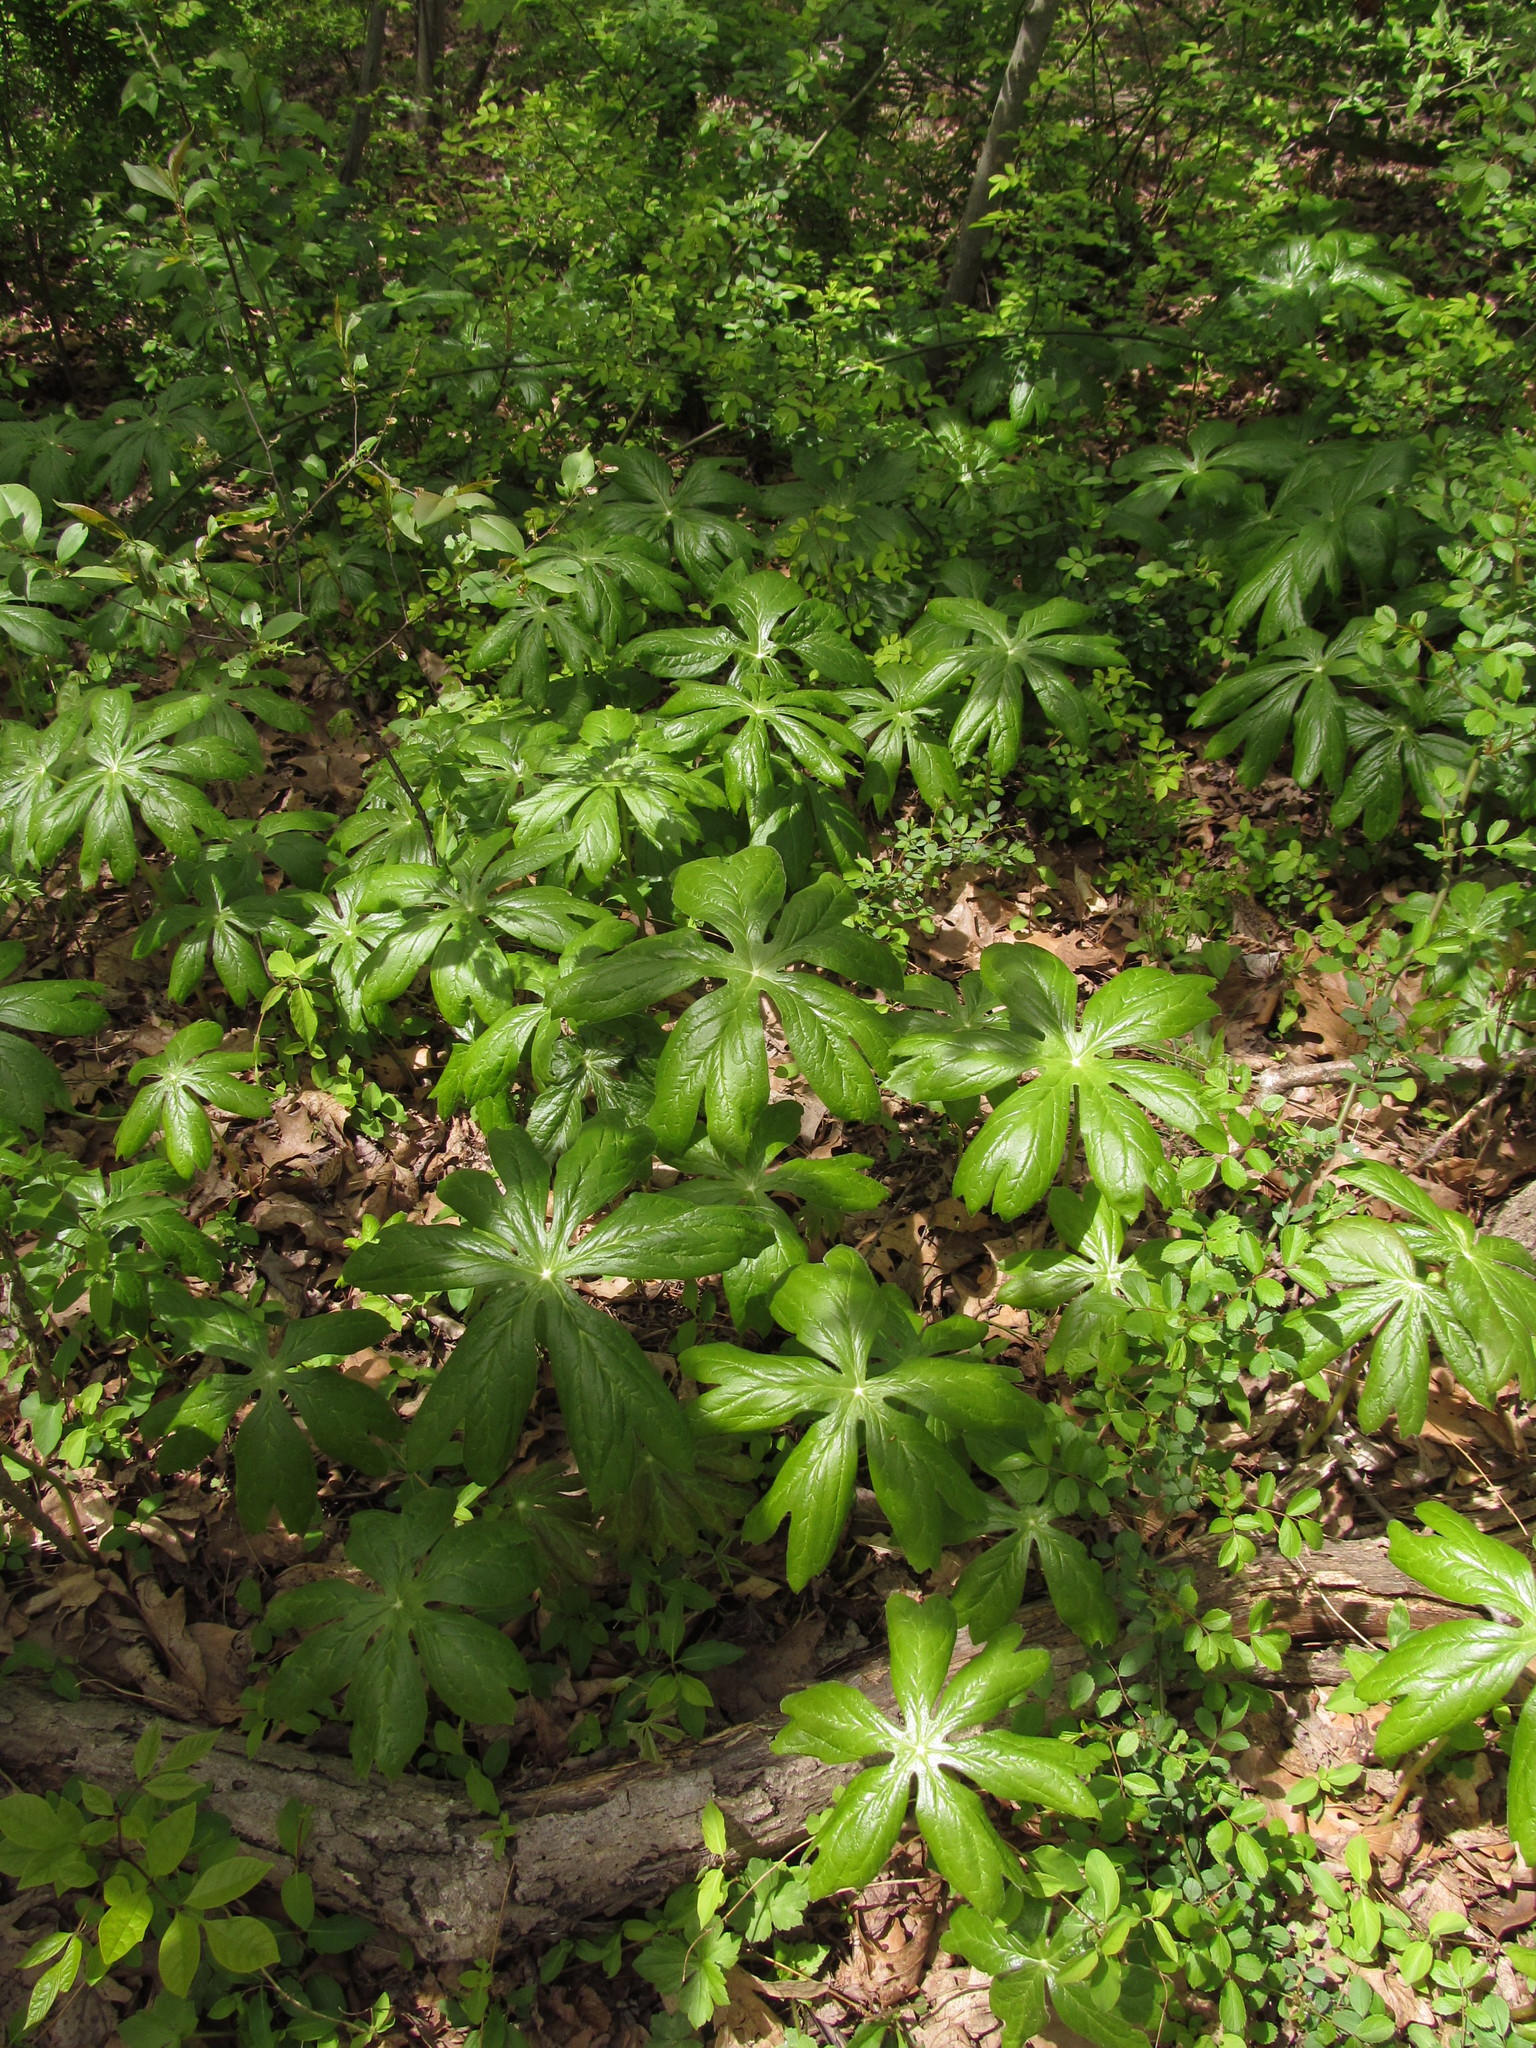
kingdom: Plantae
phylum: Tracheophyta
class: Magnoliopsida
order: Ranunculales
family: Berberidaceae
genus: Podophyllum
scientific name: Podophyllum peltatum
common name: Wild mandrake
